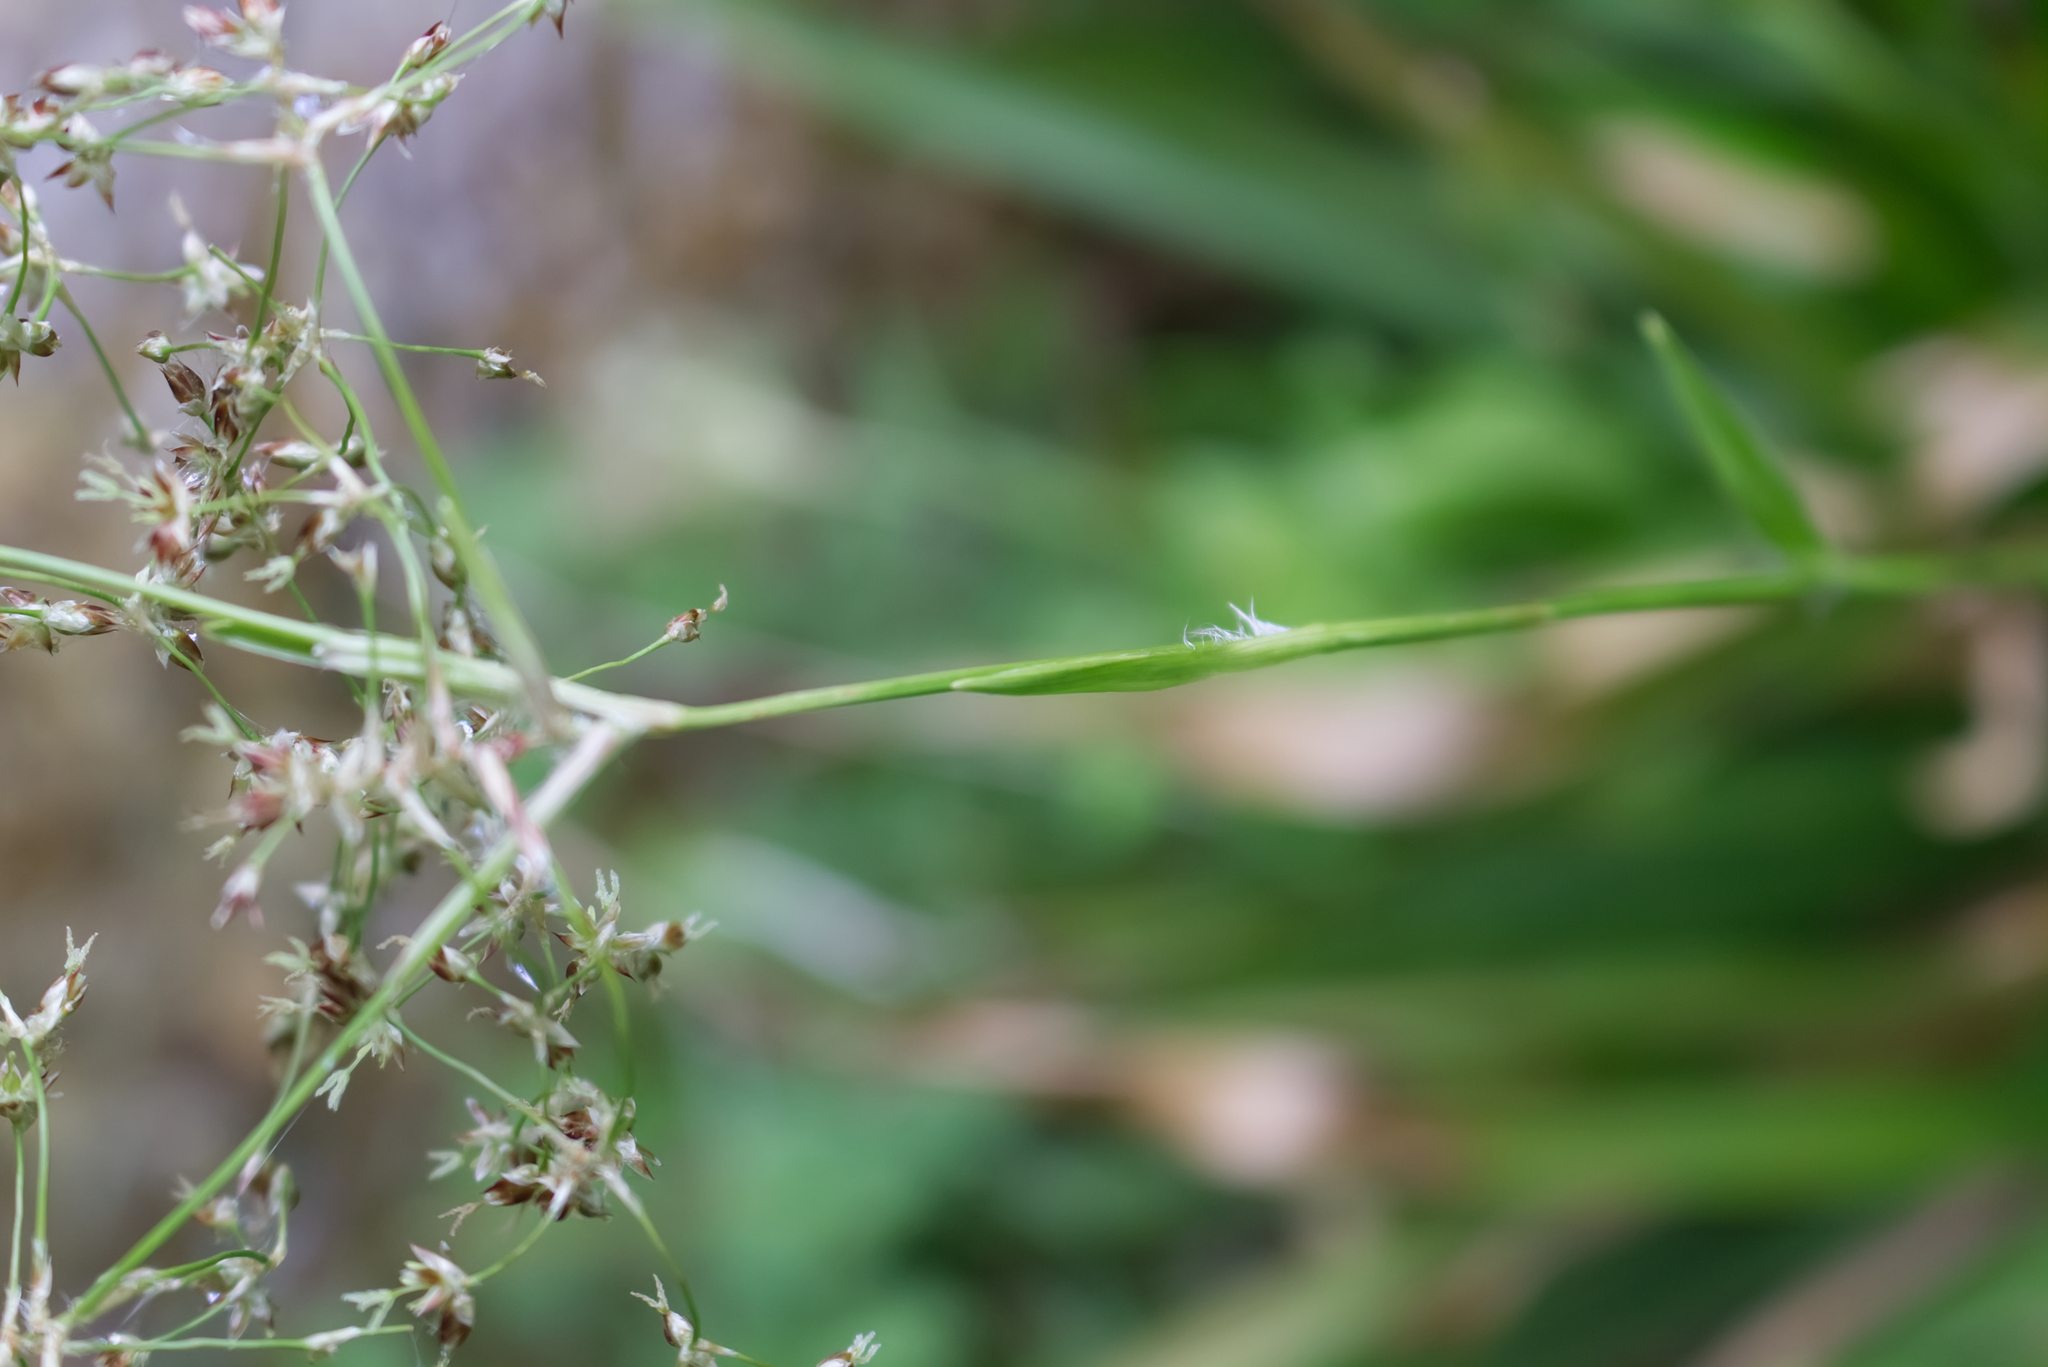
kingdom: Plantae
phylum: Tracheophyta
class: Liliopsida
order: Poales
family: Juncaceae
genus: Luzula
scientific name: Luzula sylvatica
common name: Great wood-rush
